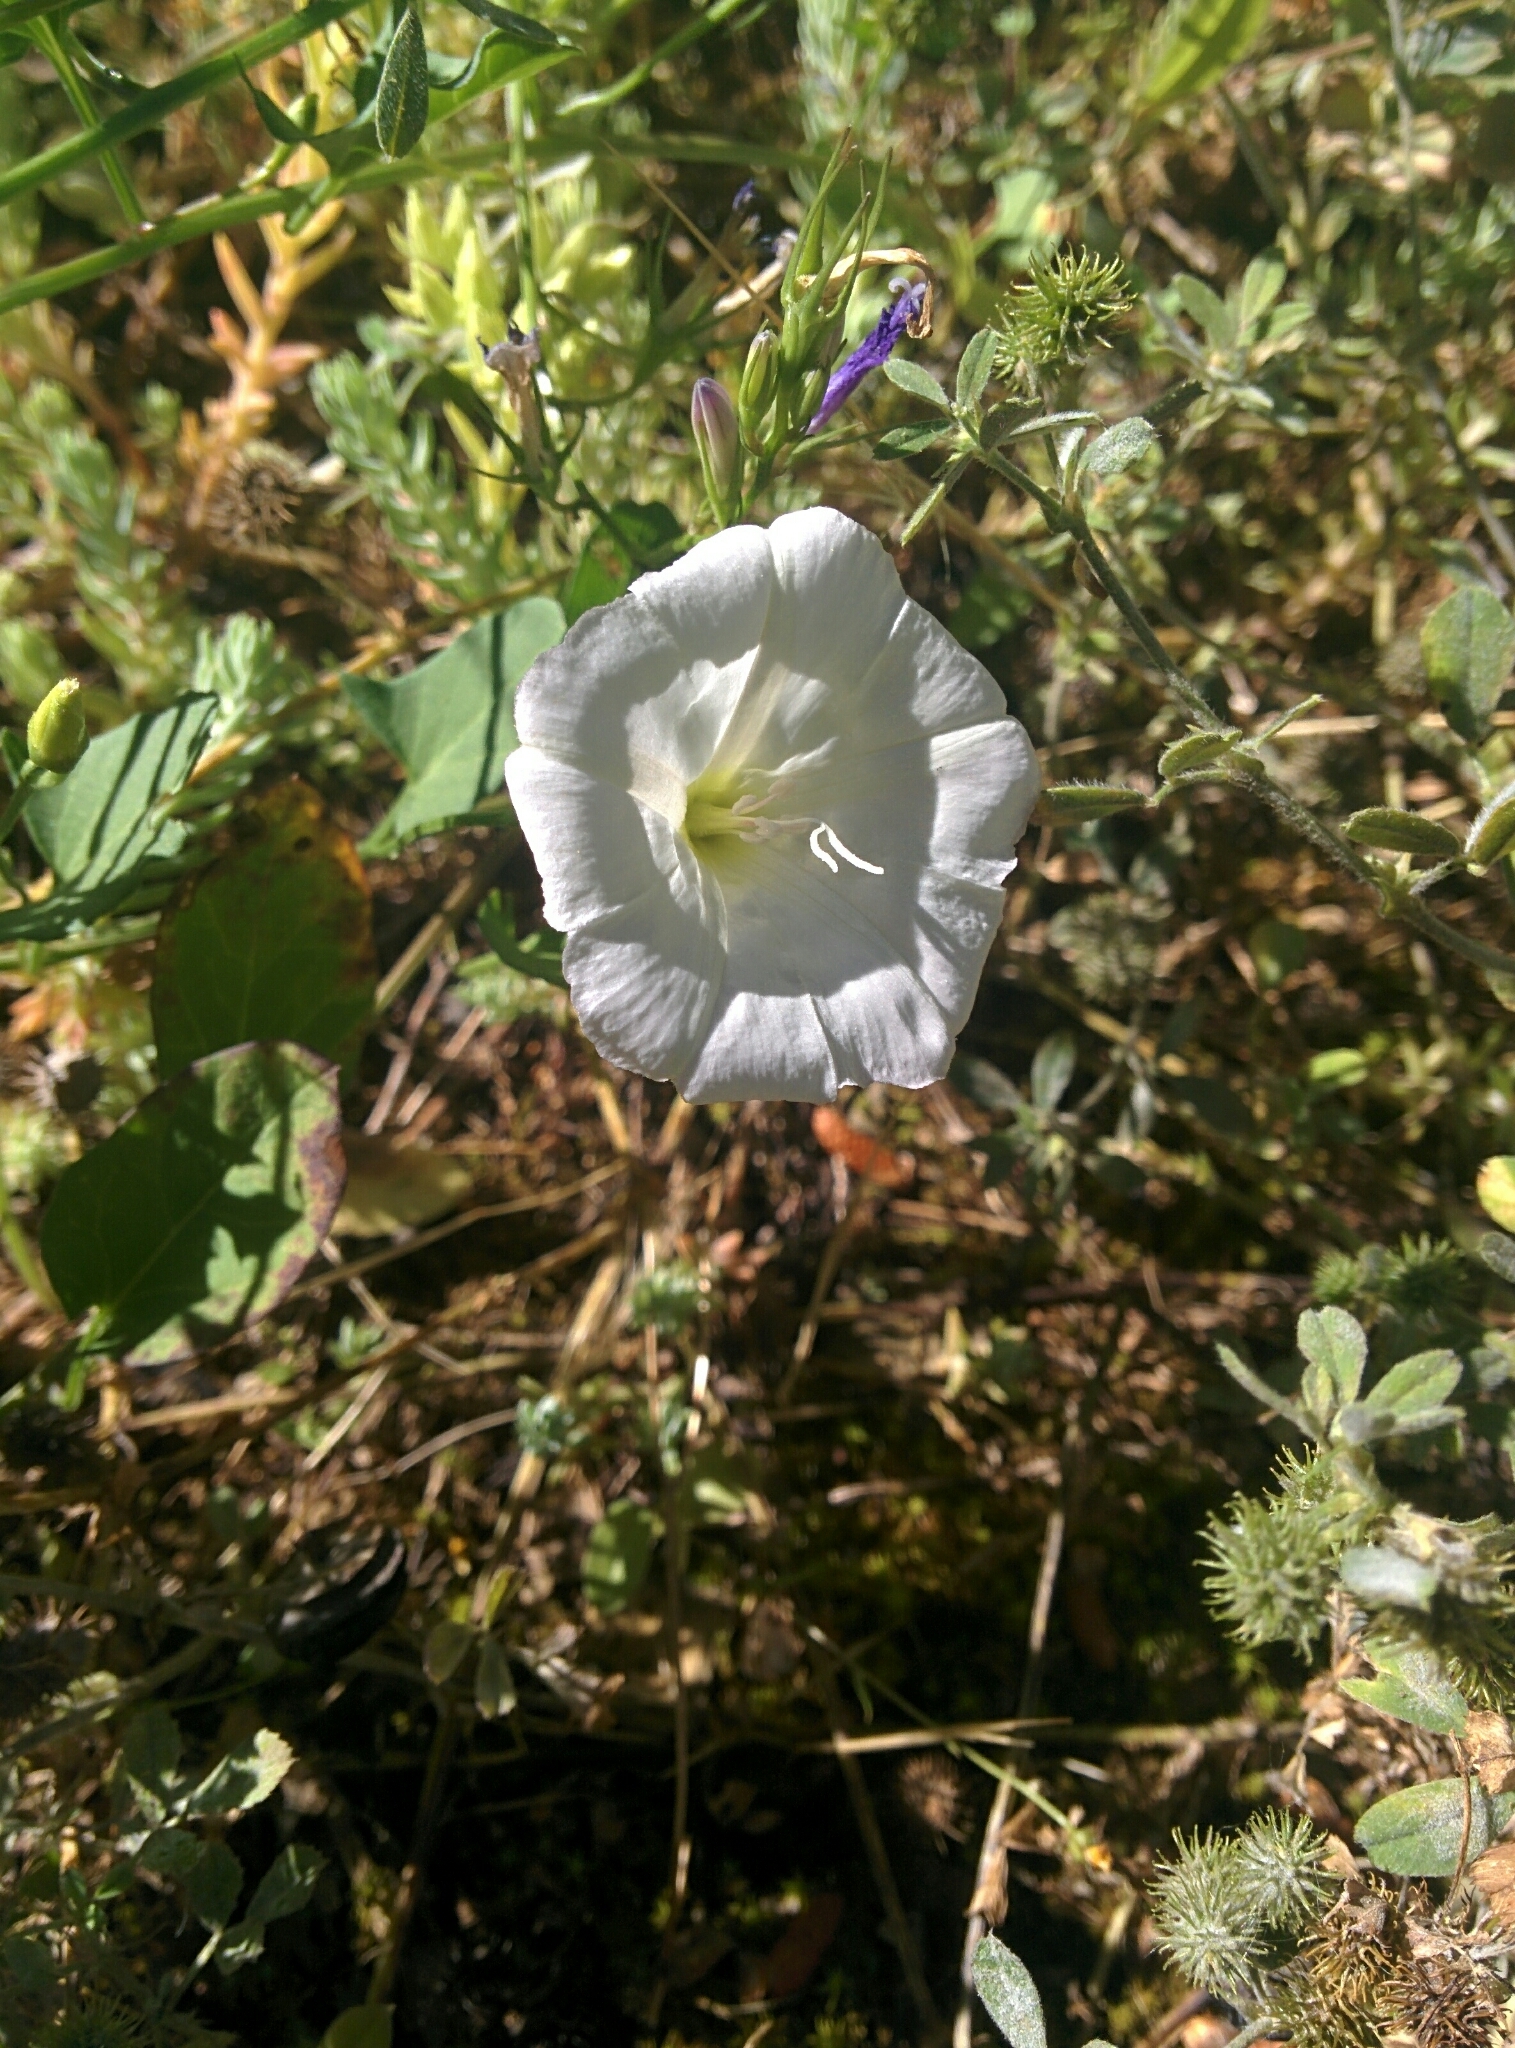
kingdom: Plantae
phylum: Tracheophyta
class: Magnoliopsida
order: Solanales
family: Convolvulaceae
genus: Convolvulus
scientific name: Convolvulus arvensis
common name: Field bindweed
